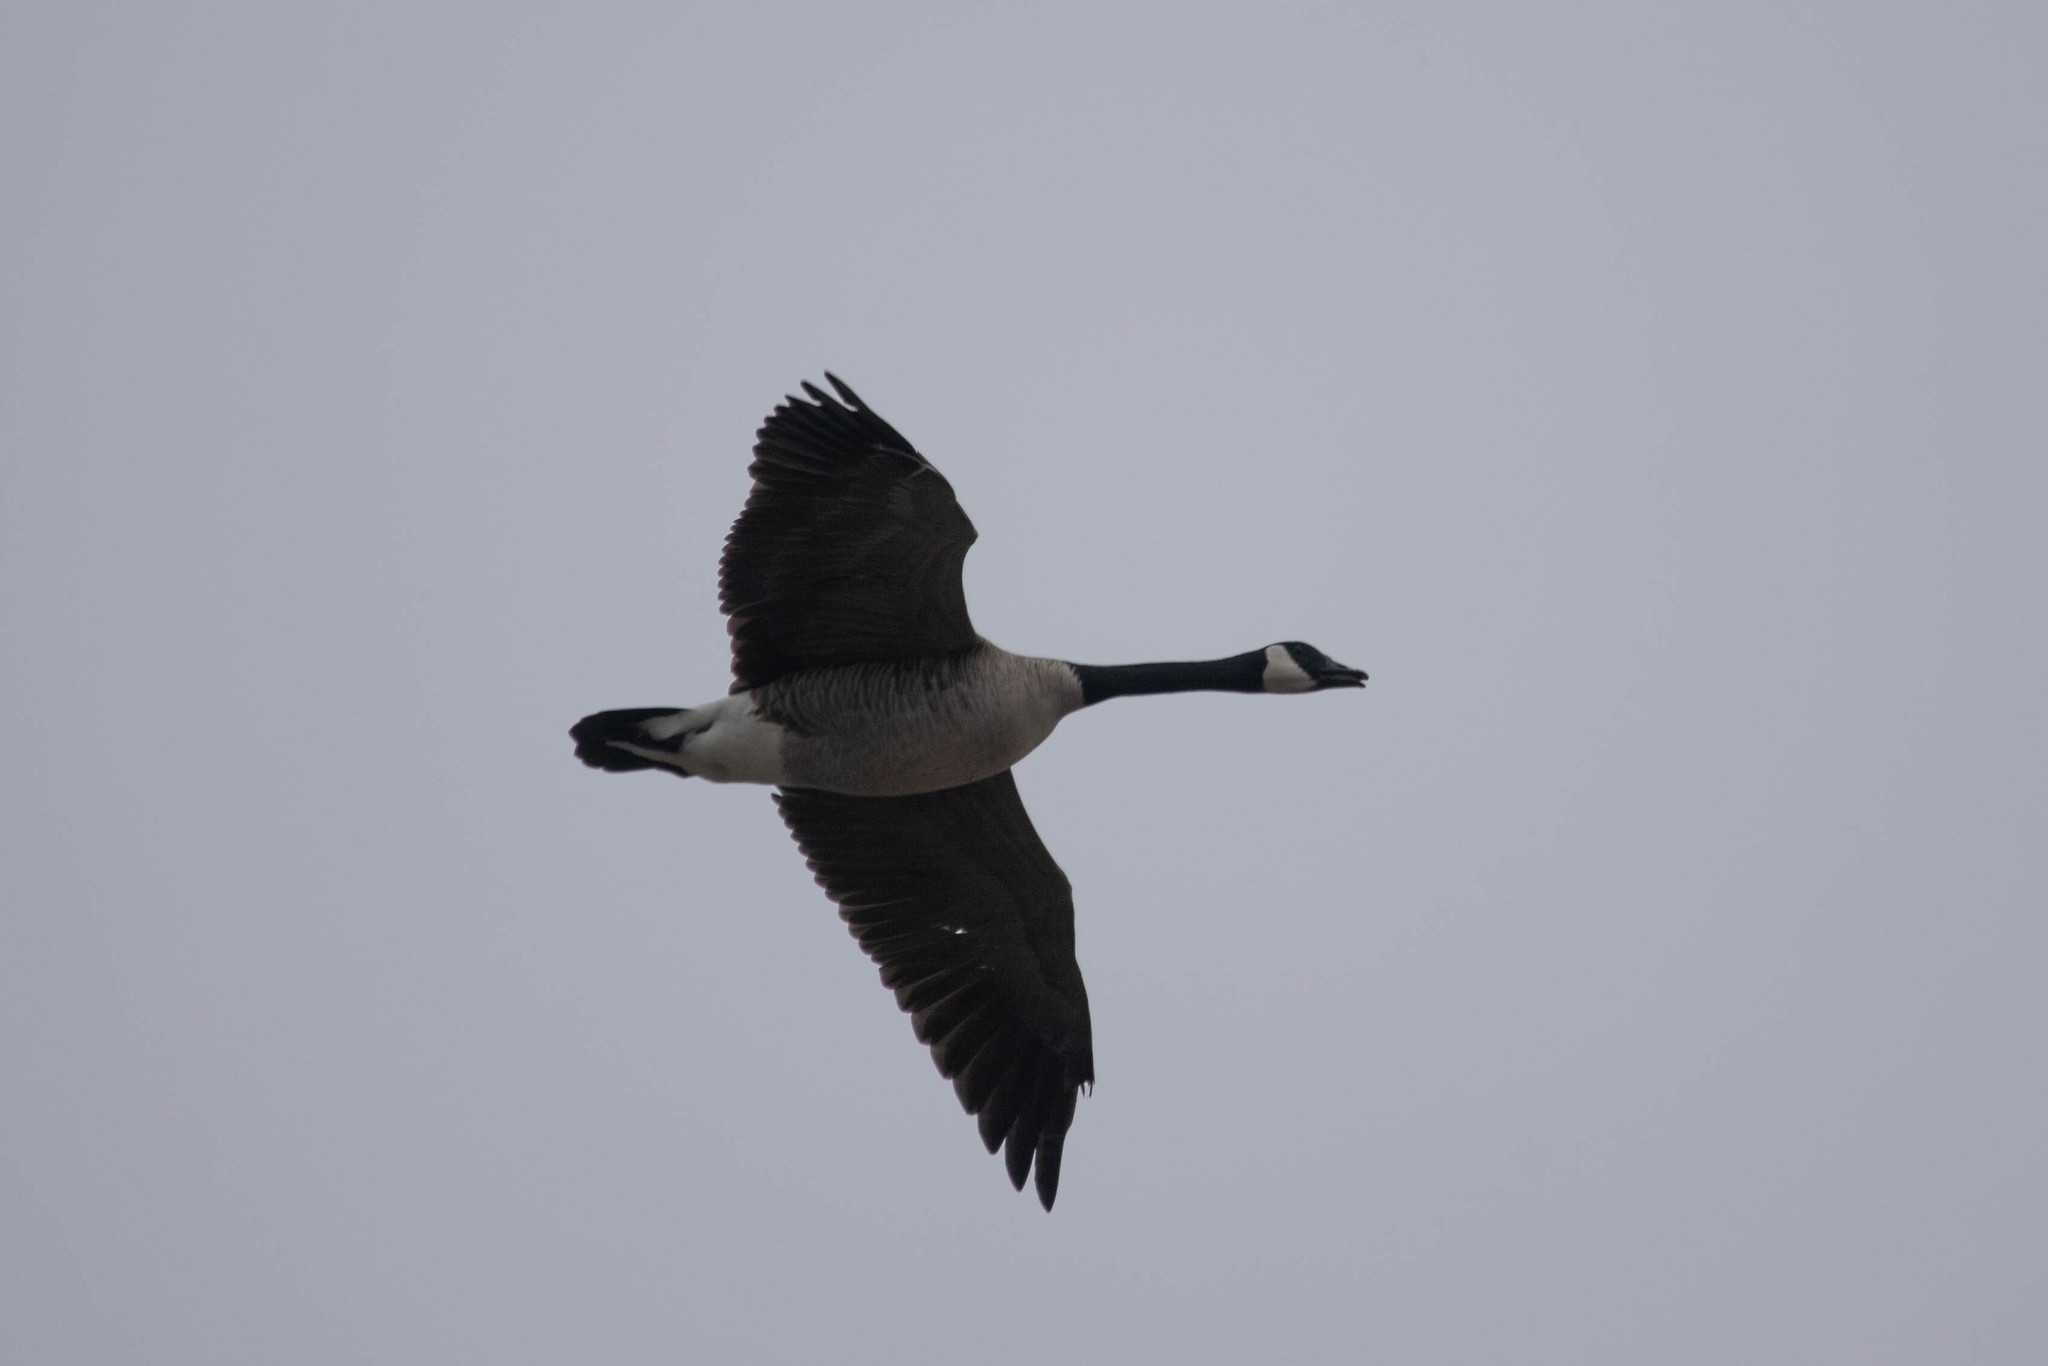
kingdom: Animalia
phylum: Chordata
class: Aves
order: Anseriformes
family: Anatidae
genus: Branta
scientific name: Branta canadensis
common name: Canada goose
